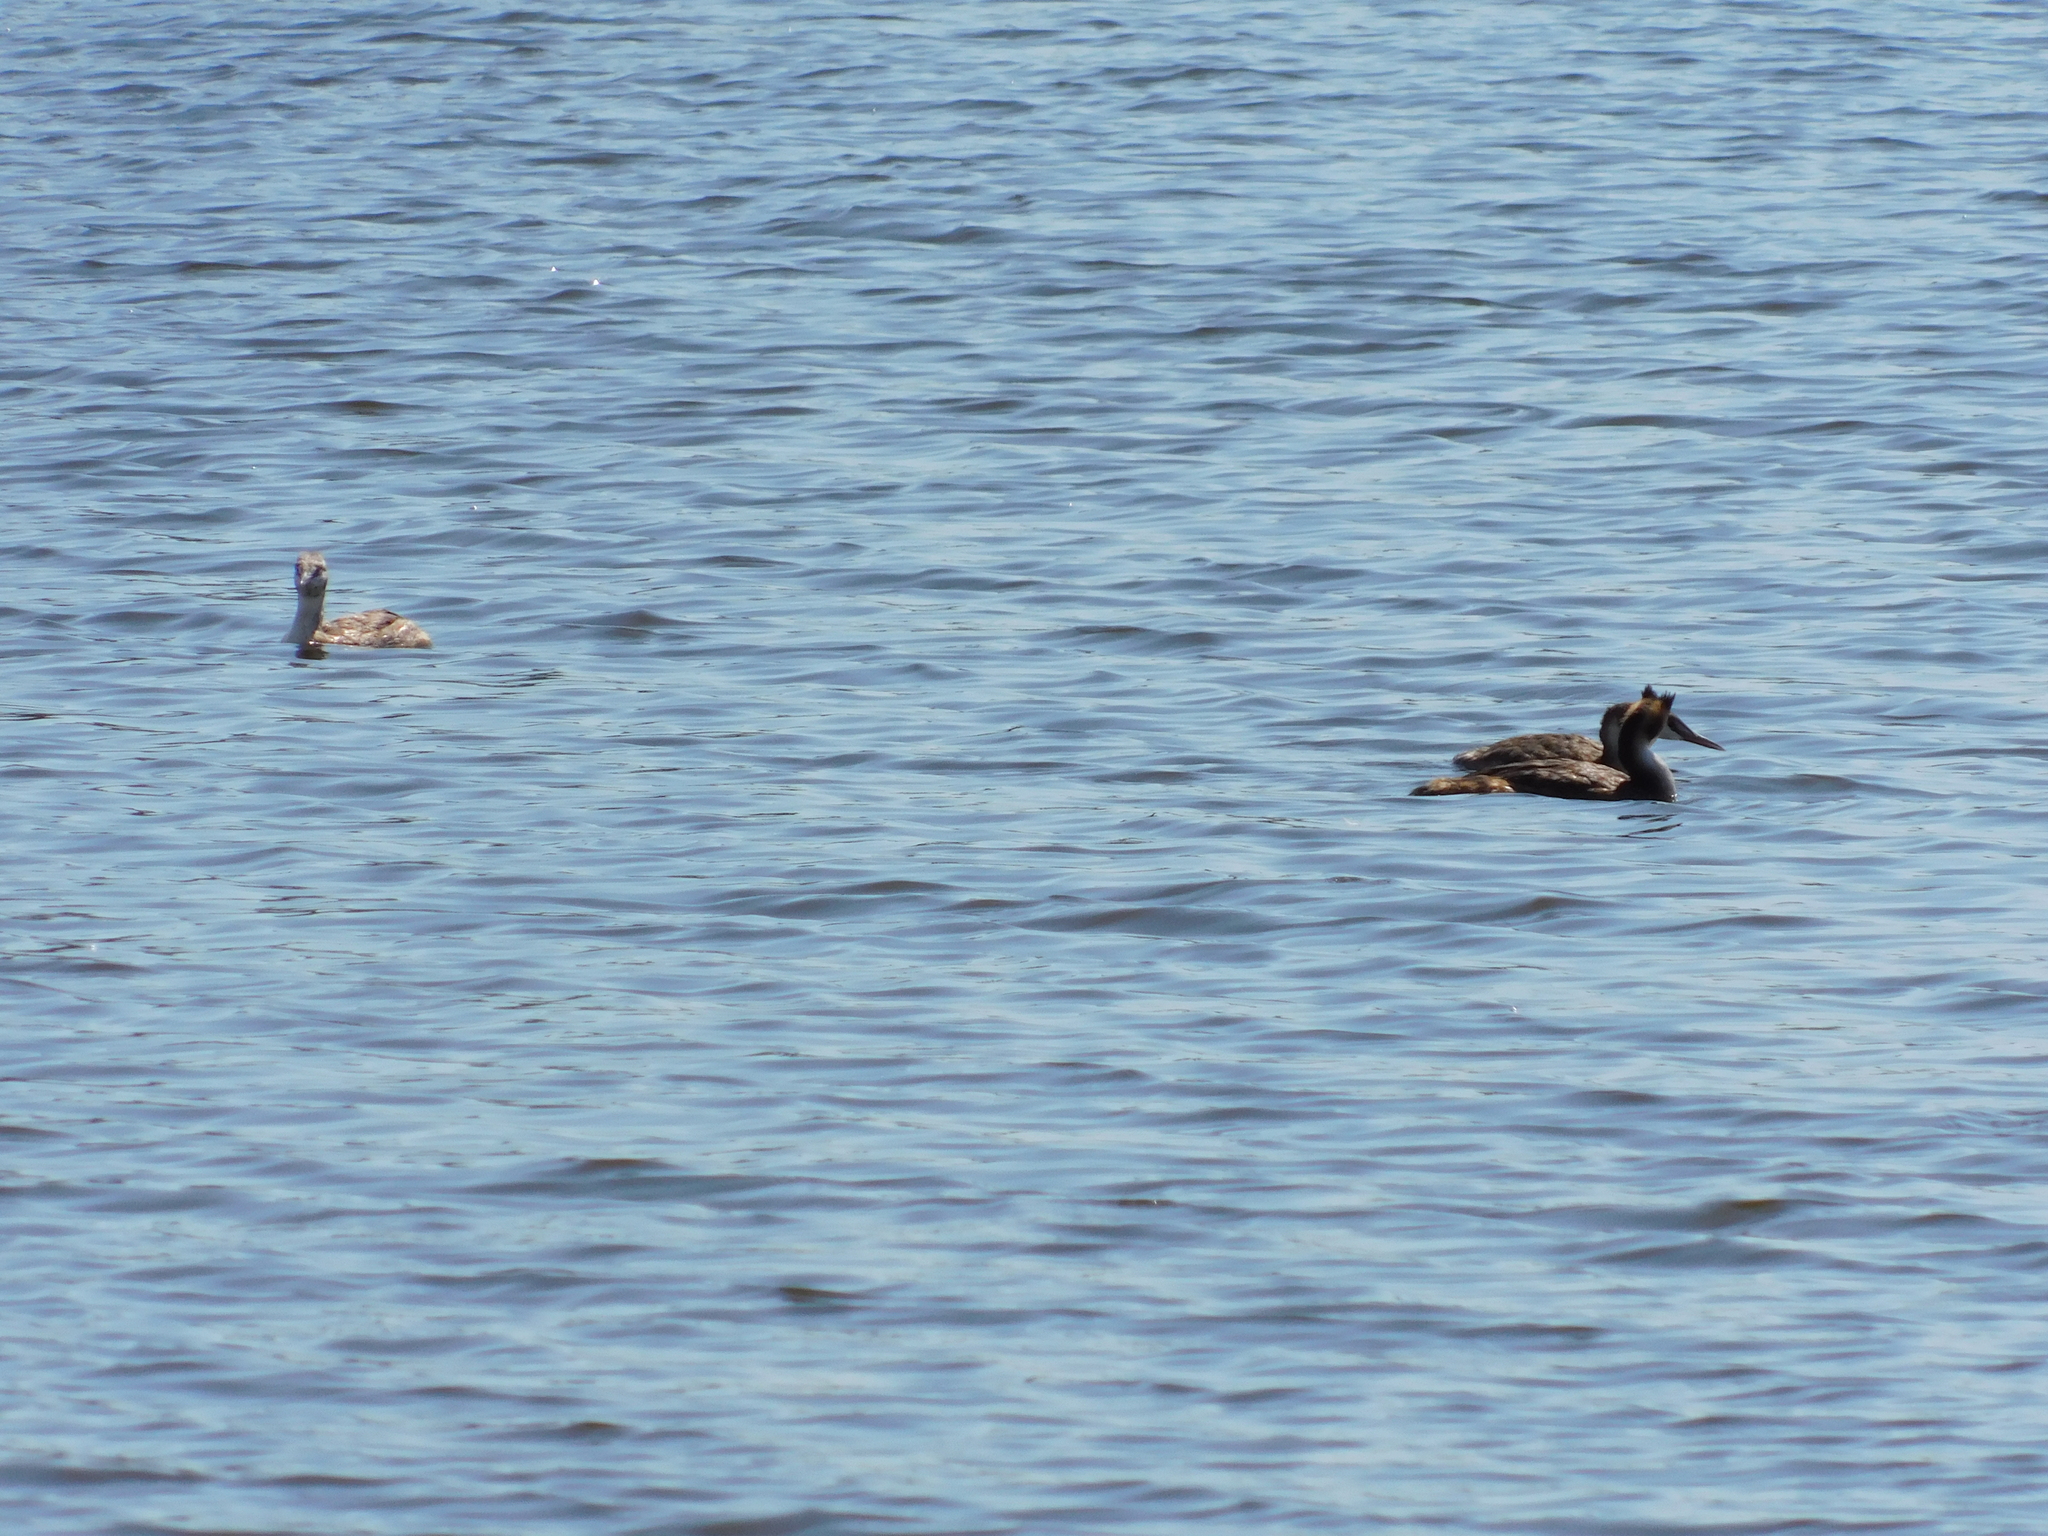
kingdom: Animalia
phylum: Chordata
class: Aves
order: Podicipediformes
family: Podicipedidae
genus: Podiceps
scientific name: Podiceps cristatus
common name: Great crested grebe
